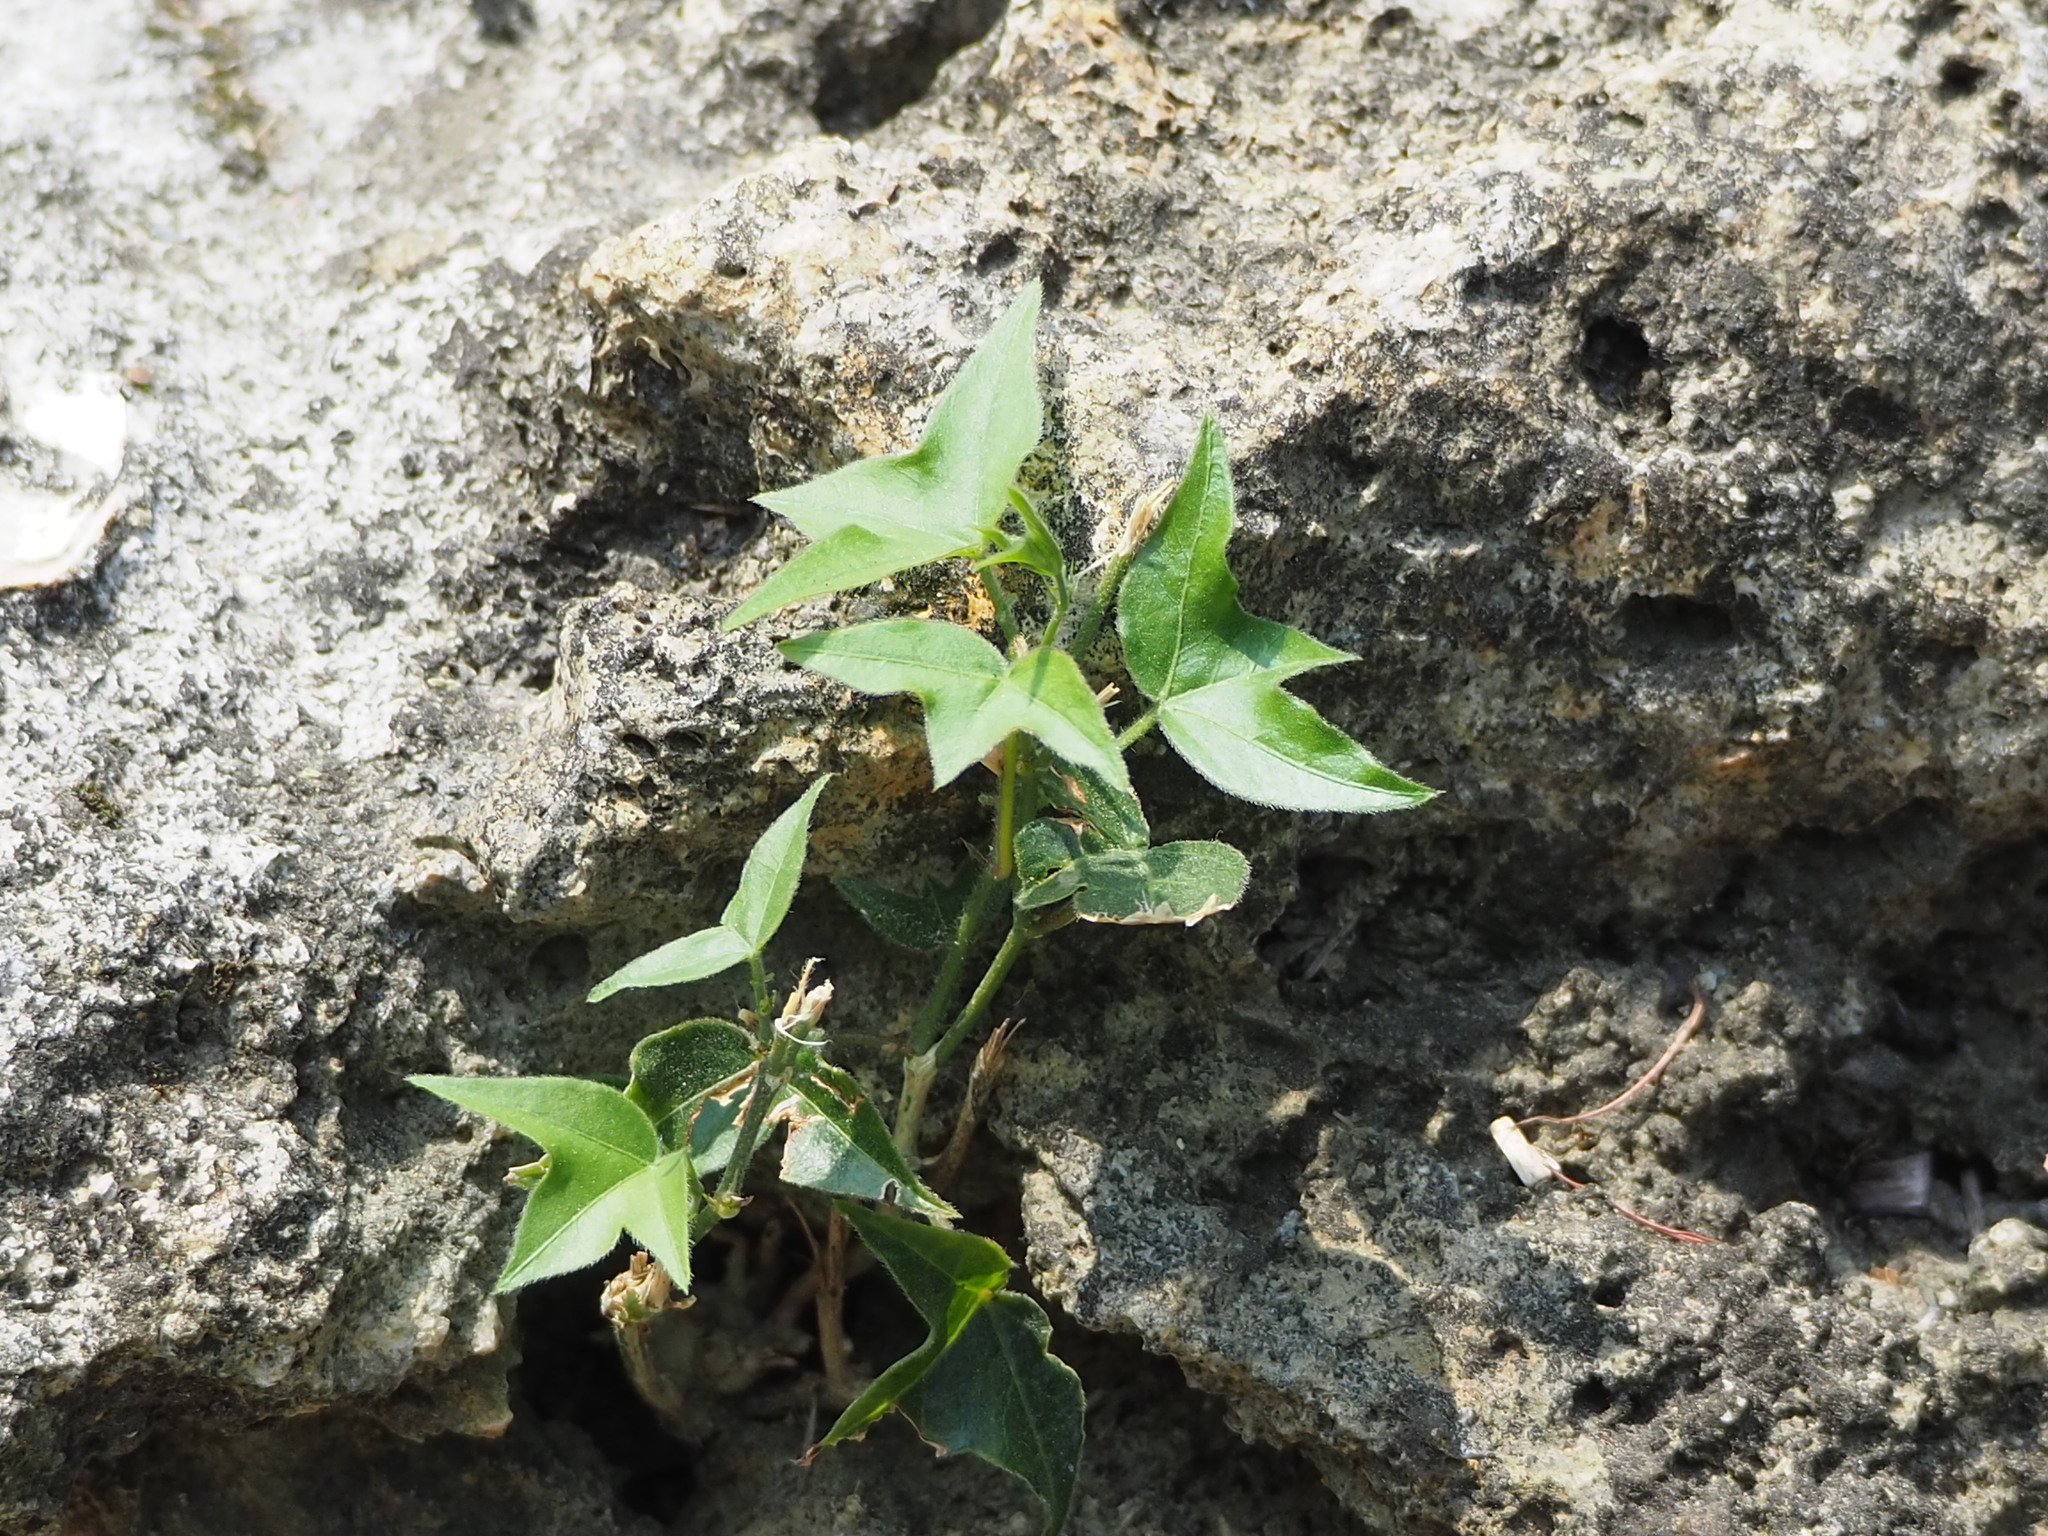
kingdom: Plantae
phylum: Tracheophyta
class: Magnoliopsida
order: Malpighiales
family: Passifloraceae
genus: Passiflora
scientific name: Passiflora suberosa
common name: Wild passionfruit
